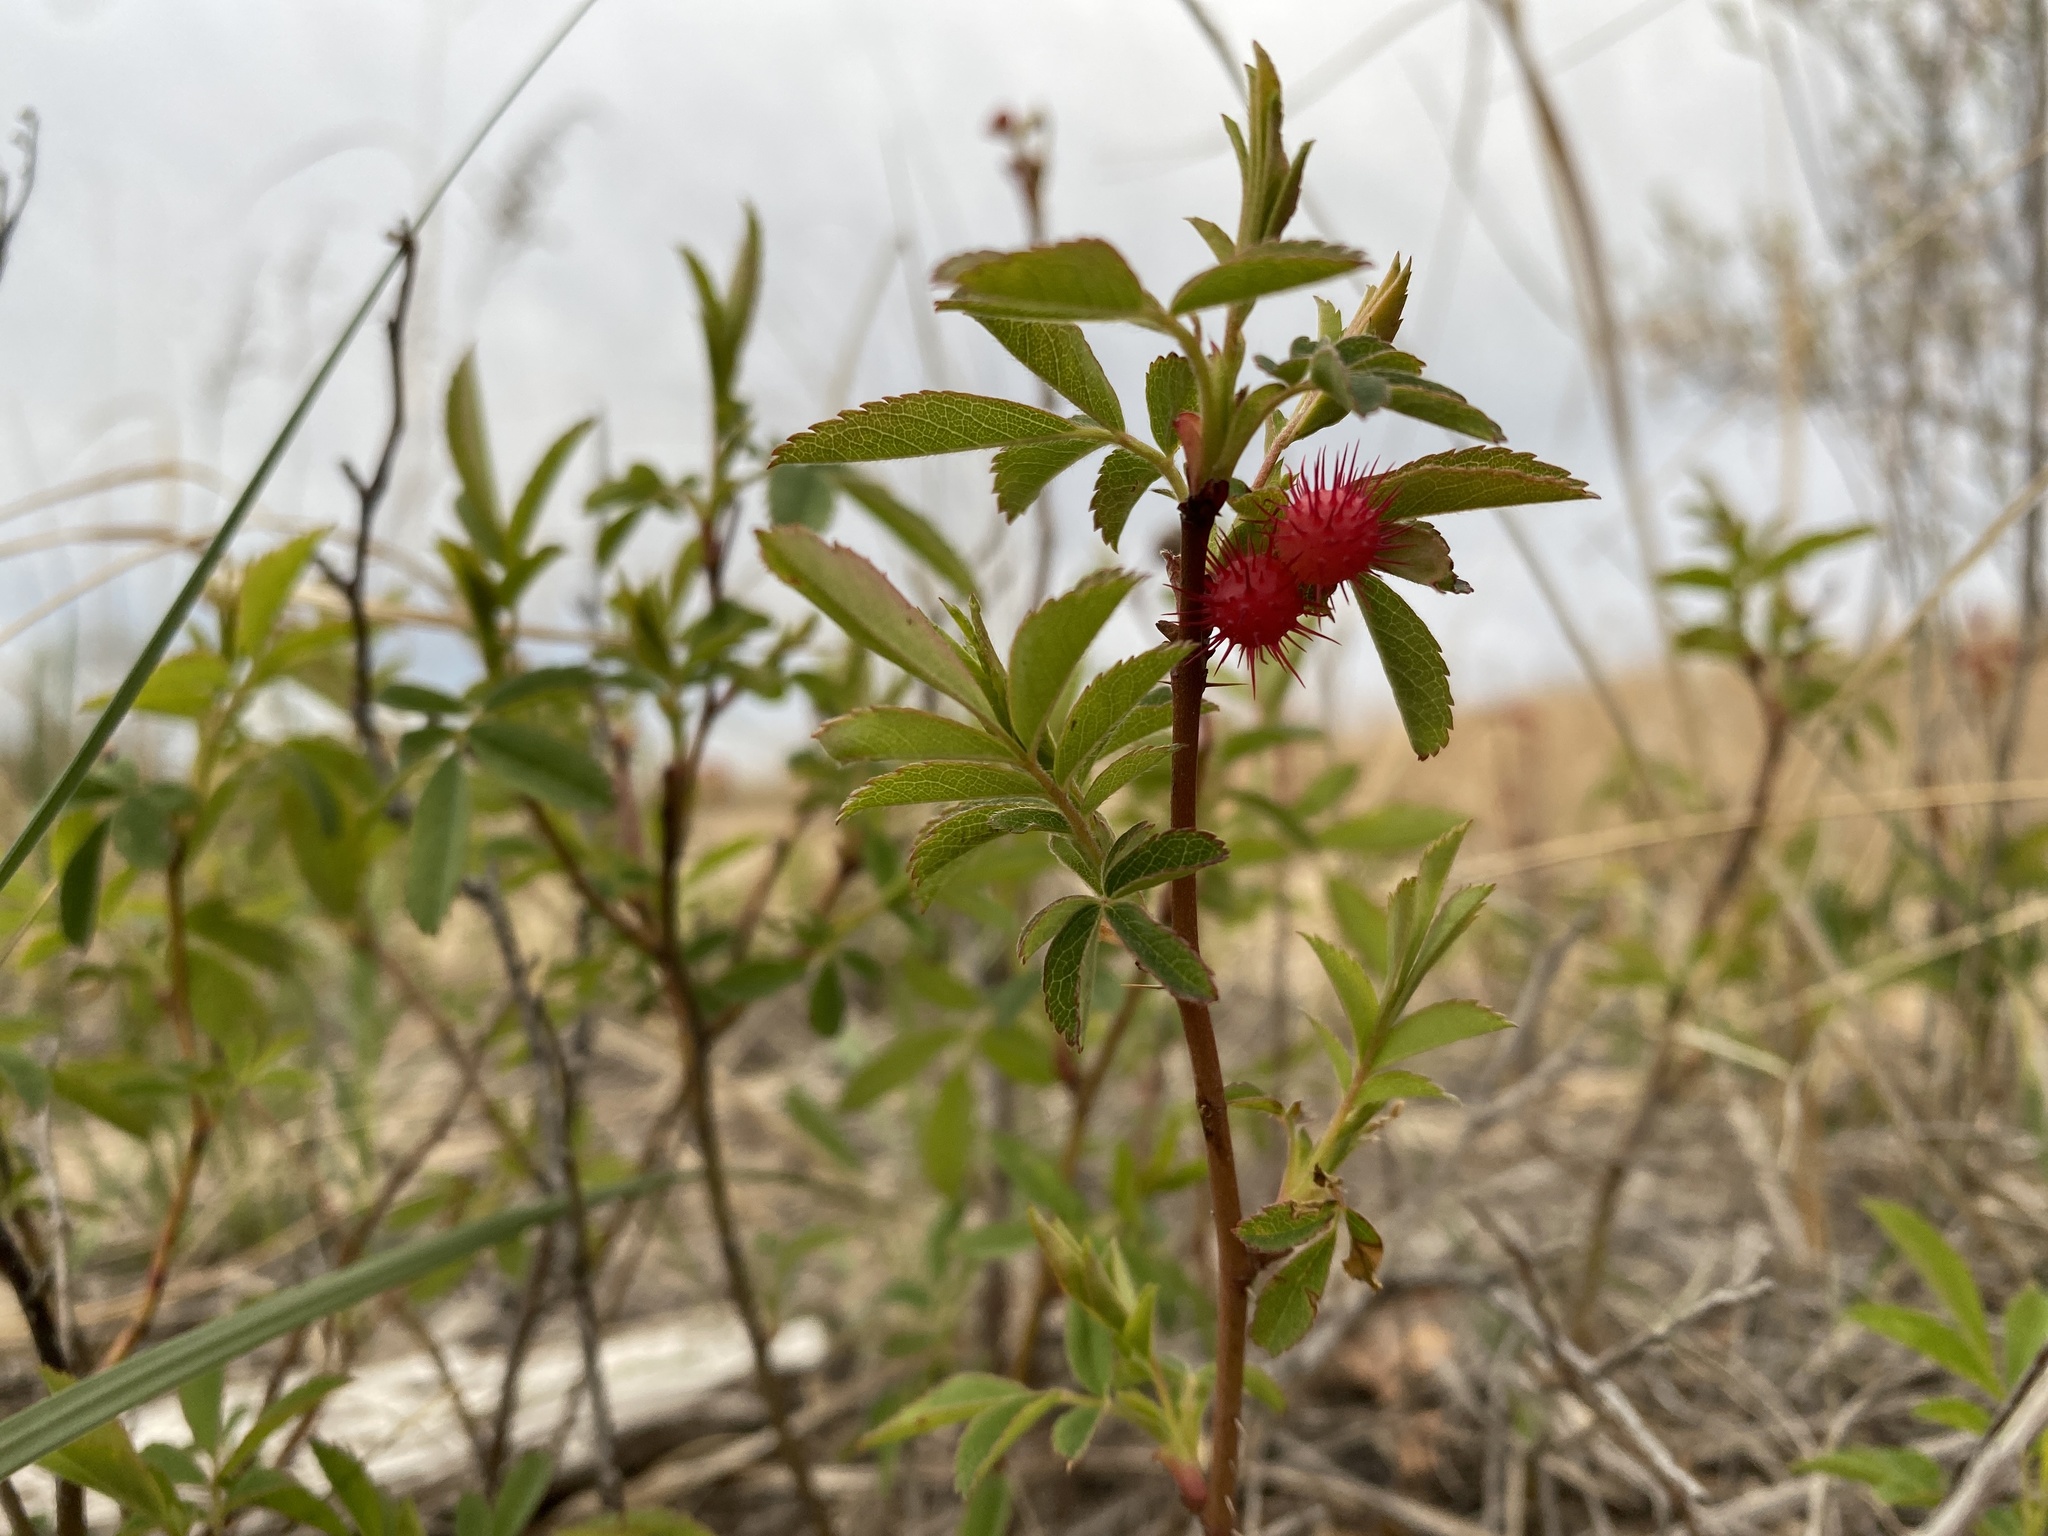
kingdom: Animalia
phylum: Arthropoda
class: Insecta
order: Hymenoptera
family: Cynipidae
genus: Diplolepis
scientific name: Diplolepis polita
